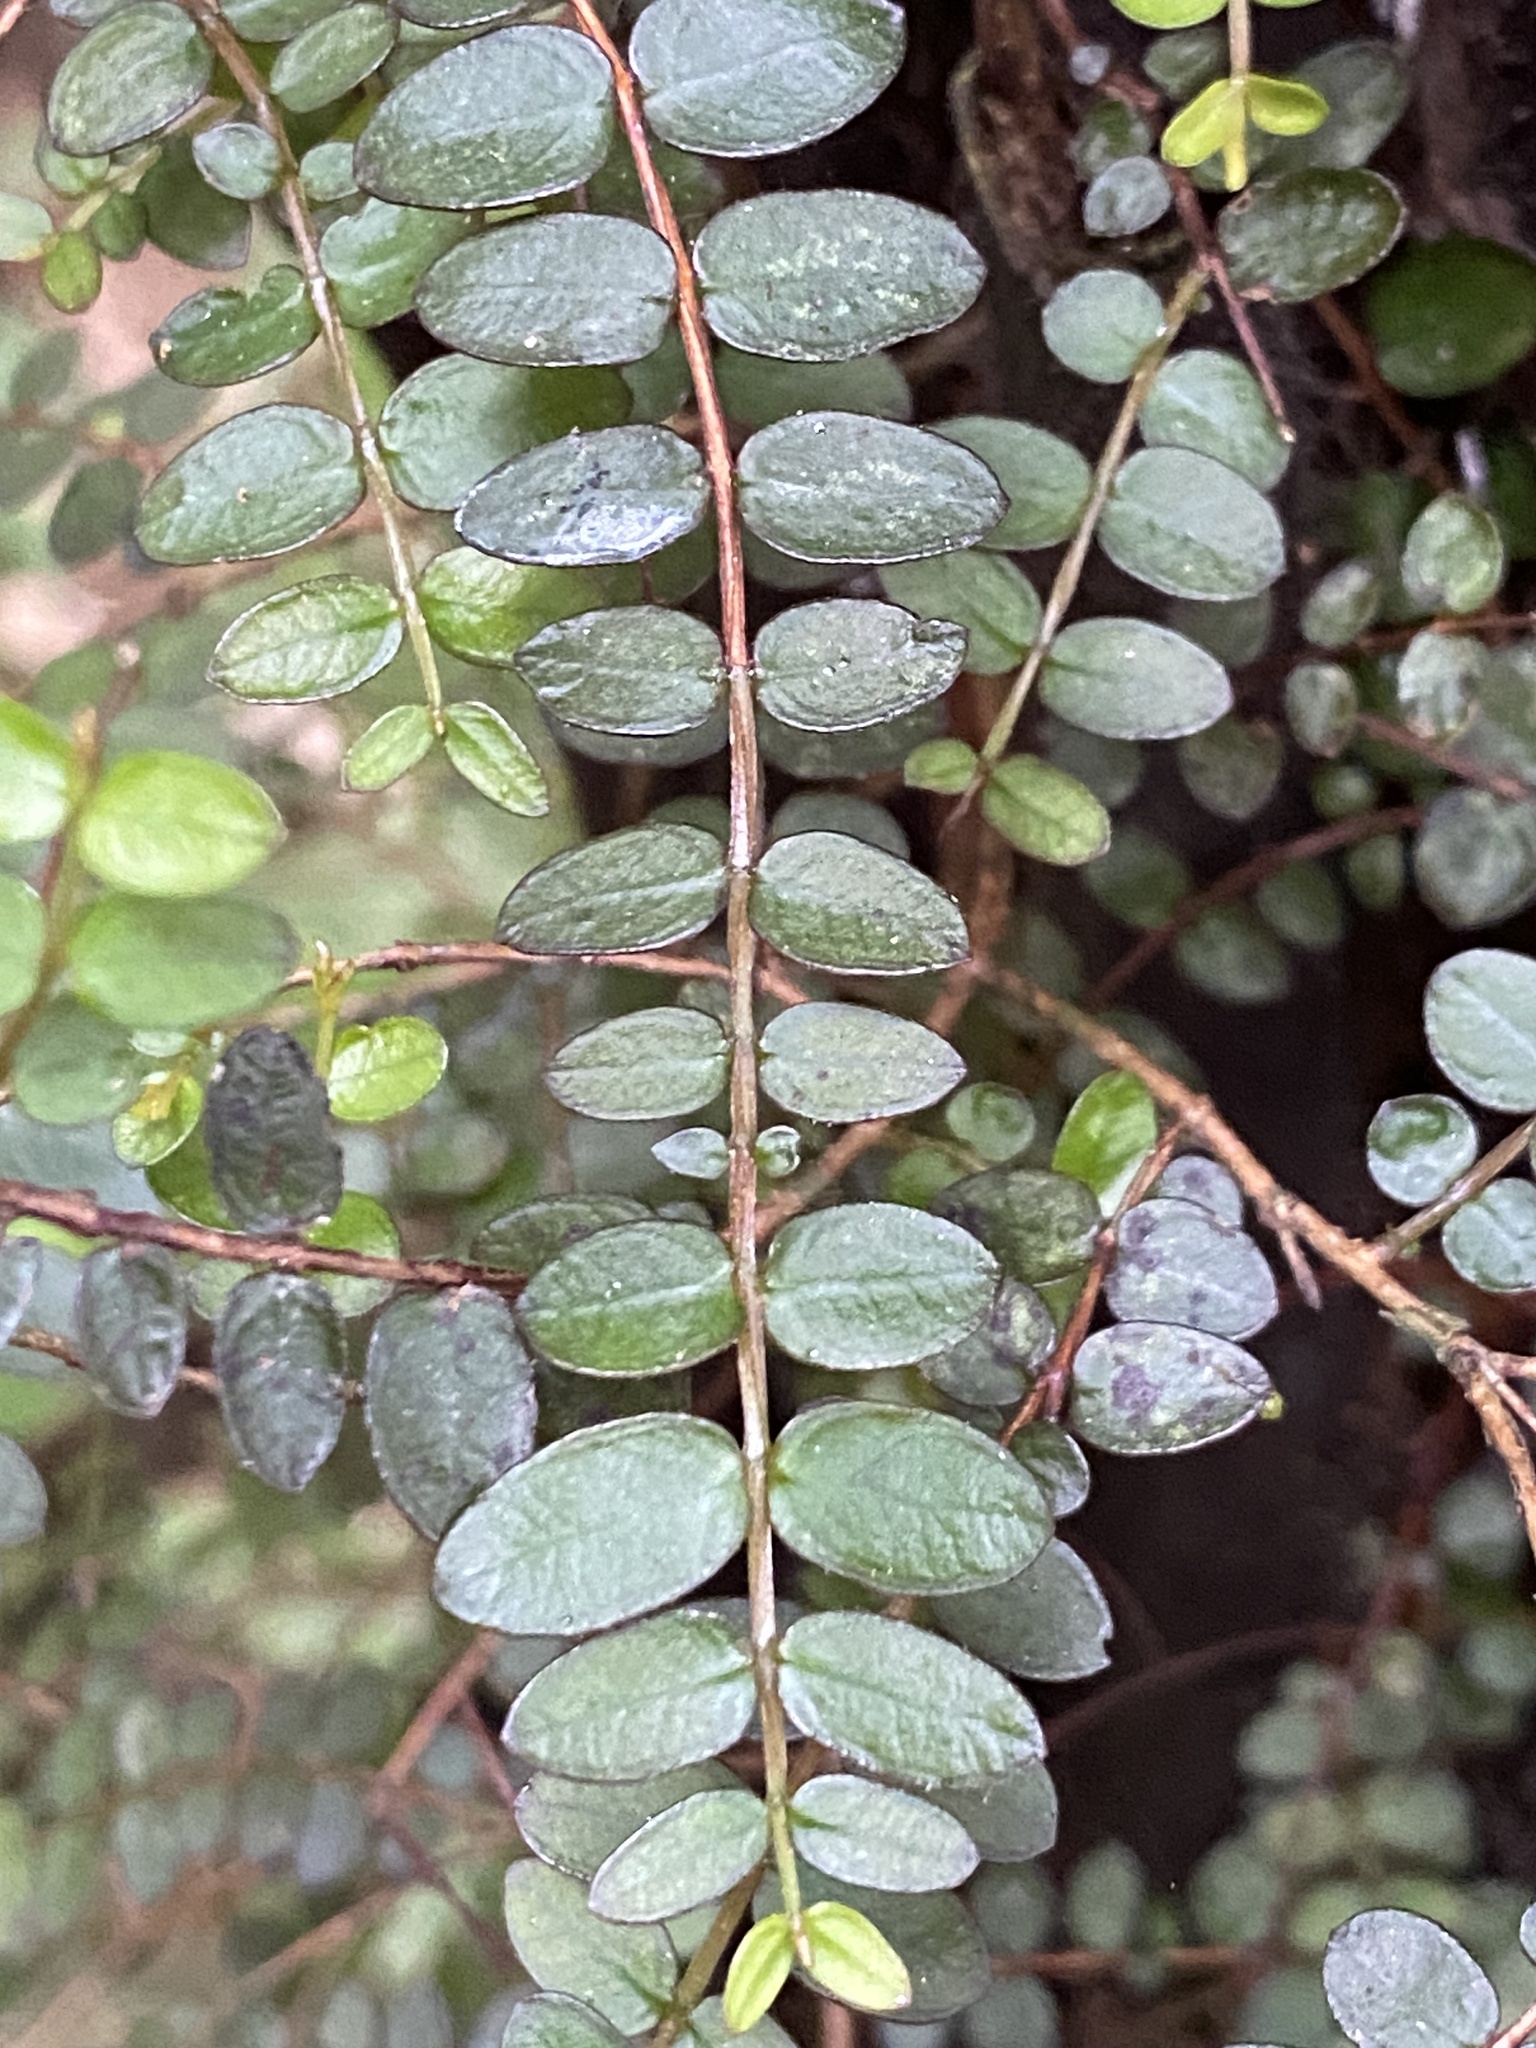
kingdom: Plantae
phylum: Tracheophyta
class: Magnoliopsida
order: Myrtales
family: Myrtaceae
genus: Metrosideros
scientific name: Metrosideros diffusa
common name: Small ratavine
